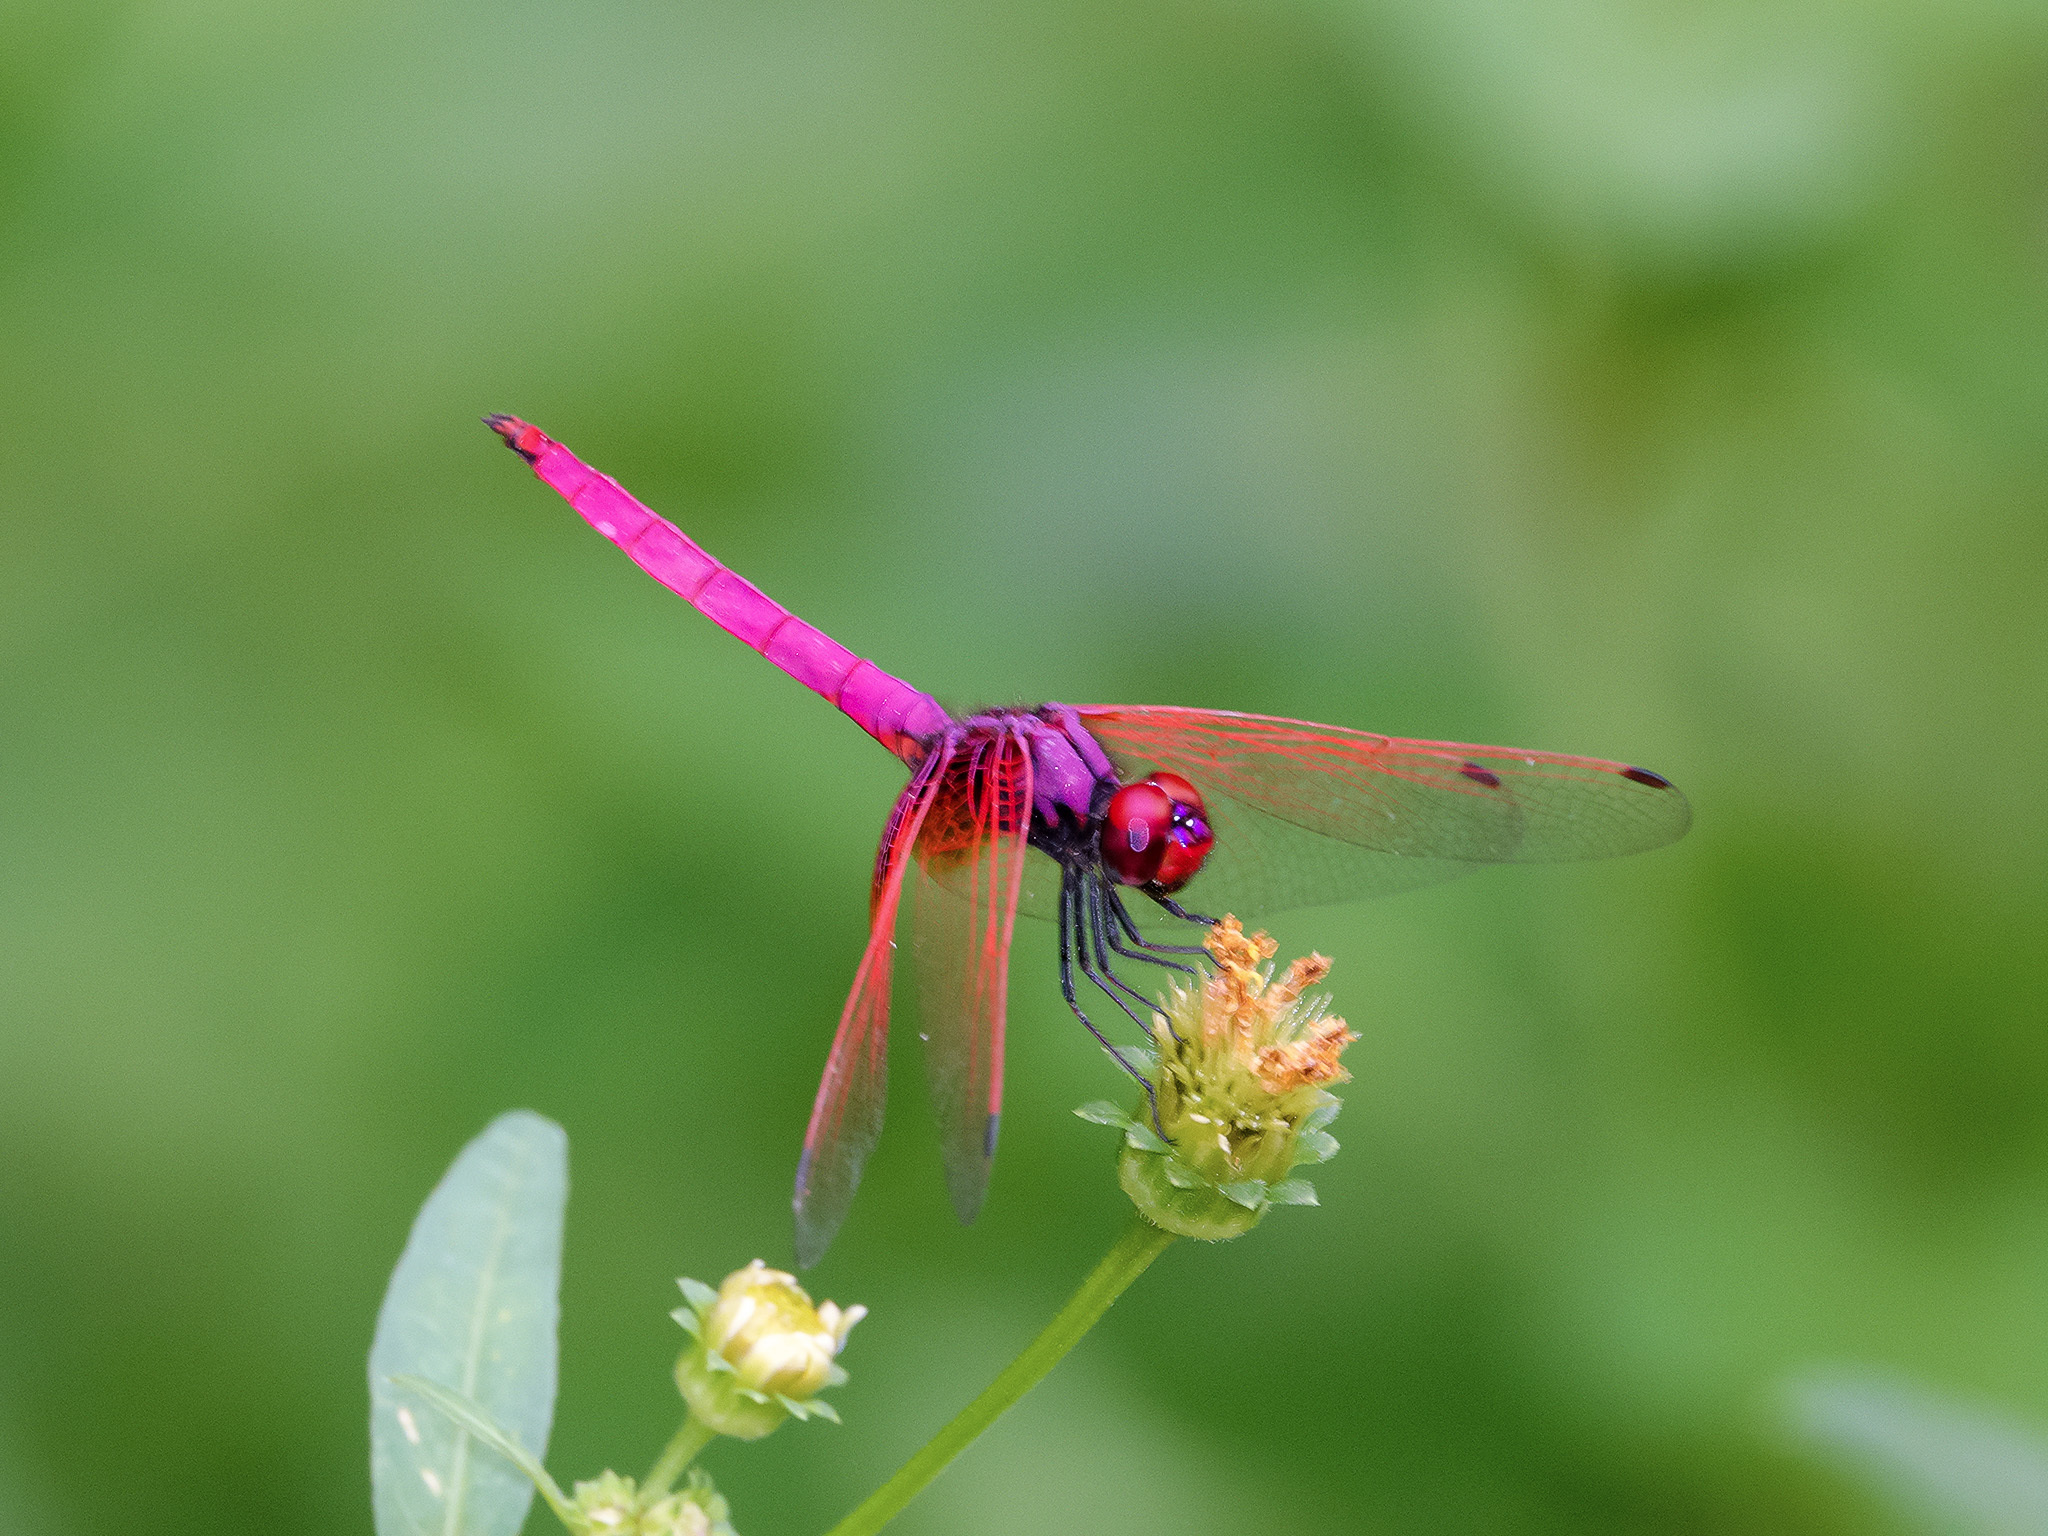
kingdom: Animalia
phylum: Arthropoda
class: Insecta
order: Odonata
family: Libellulidae
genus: Trithemis
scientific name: Trithemis aurora
